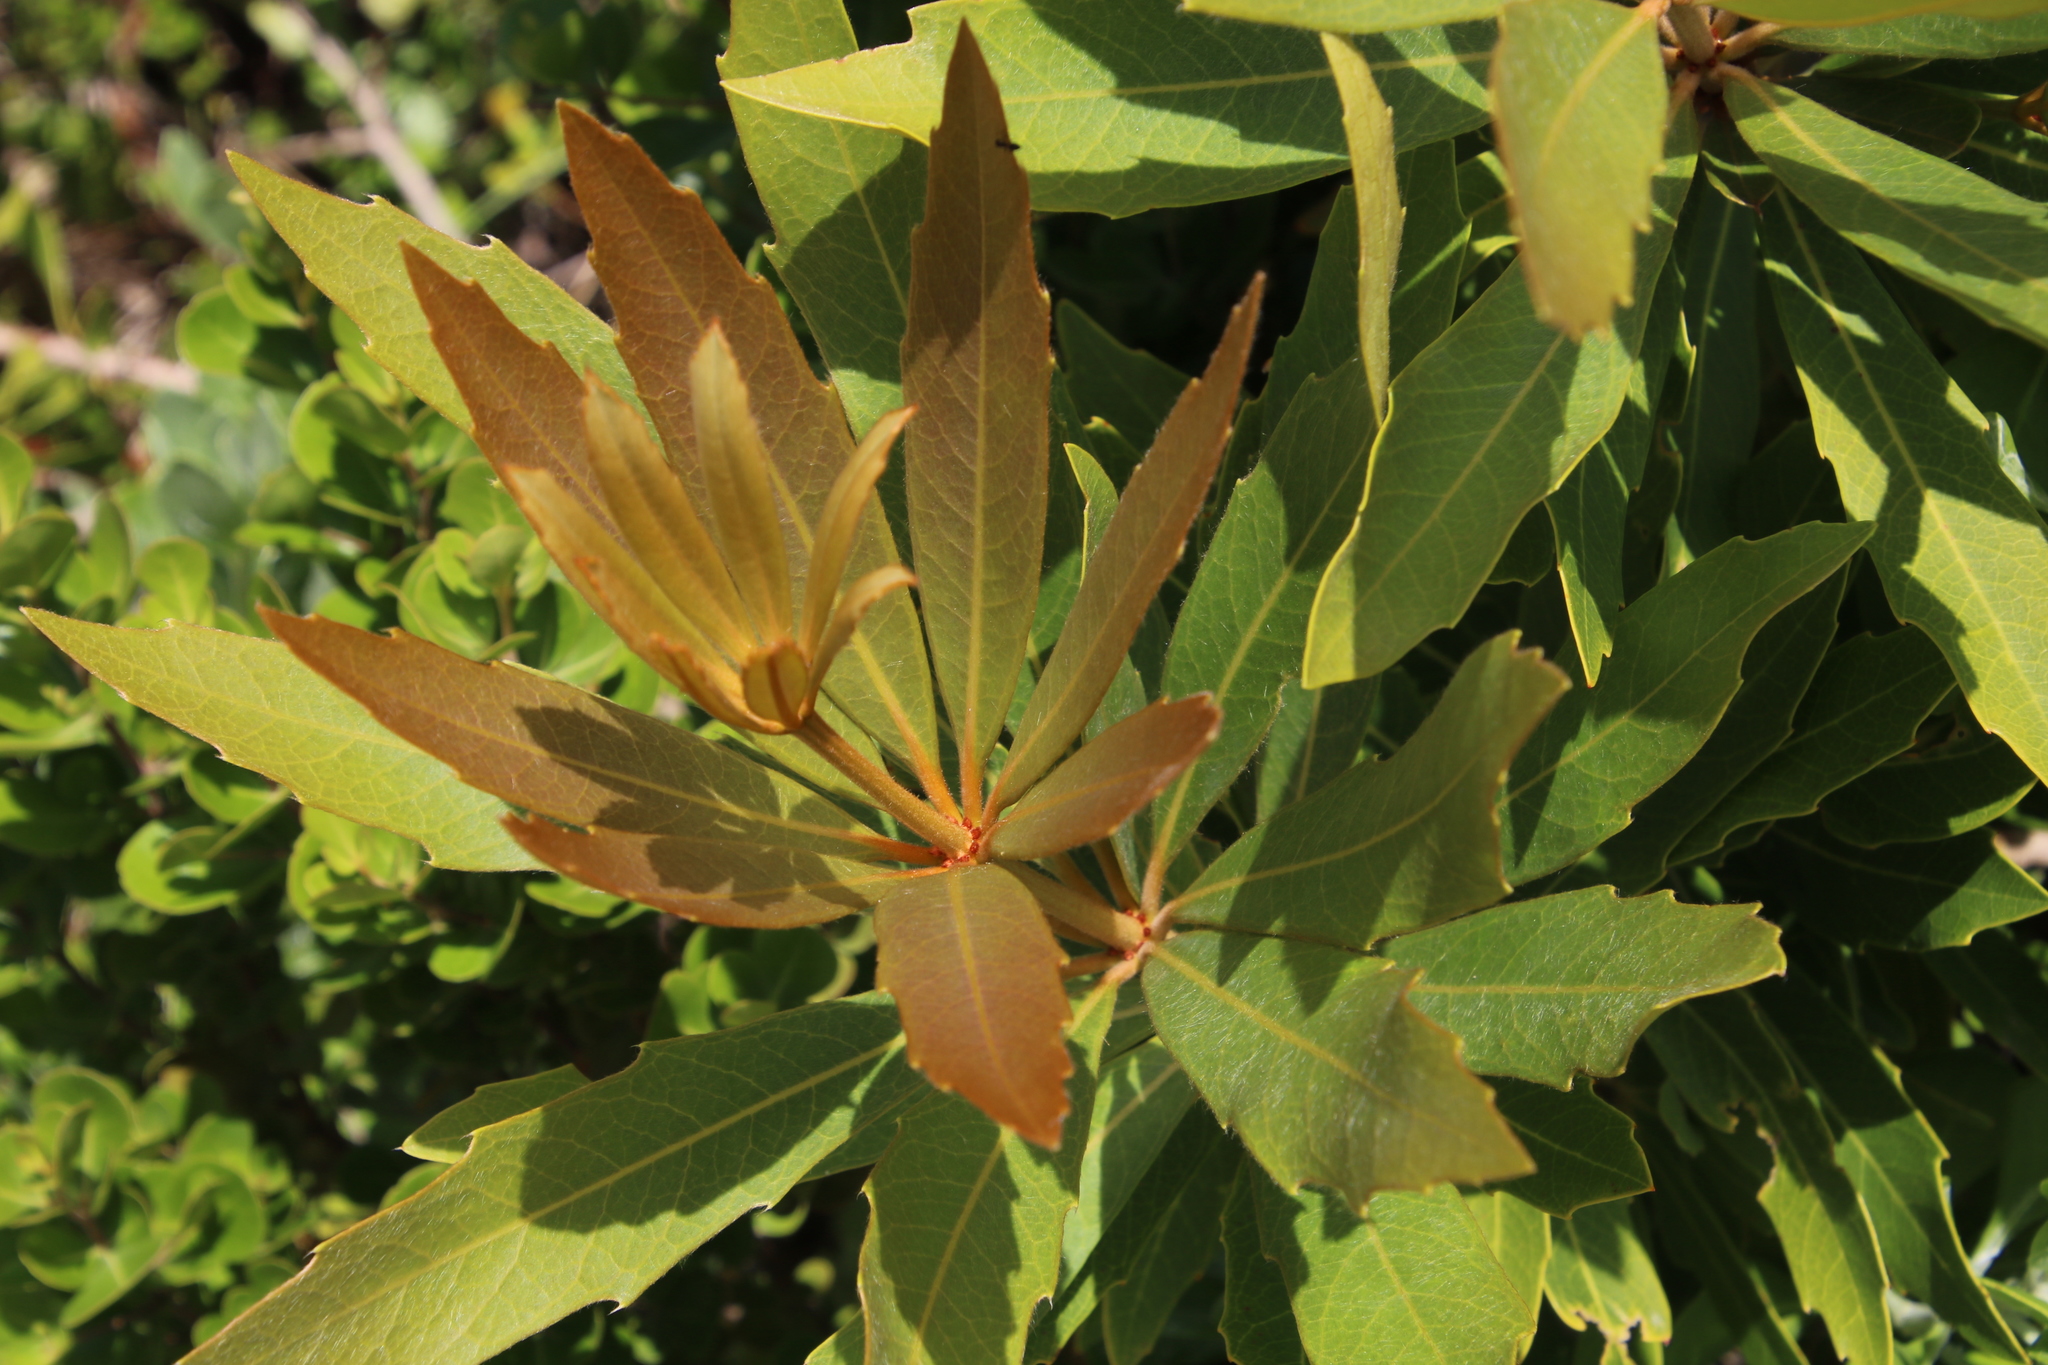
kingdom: Plantae
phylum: Tracheophyta
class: Magnoliopsida
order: Proteales
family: Proteaceae
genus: Brabejum
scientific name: Brabejum stellatifolium
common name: Wild almond
